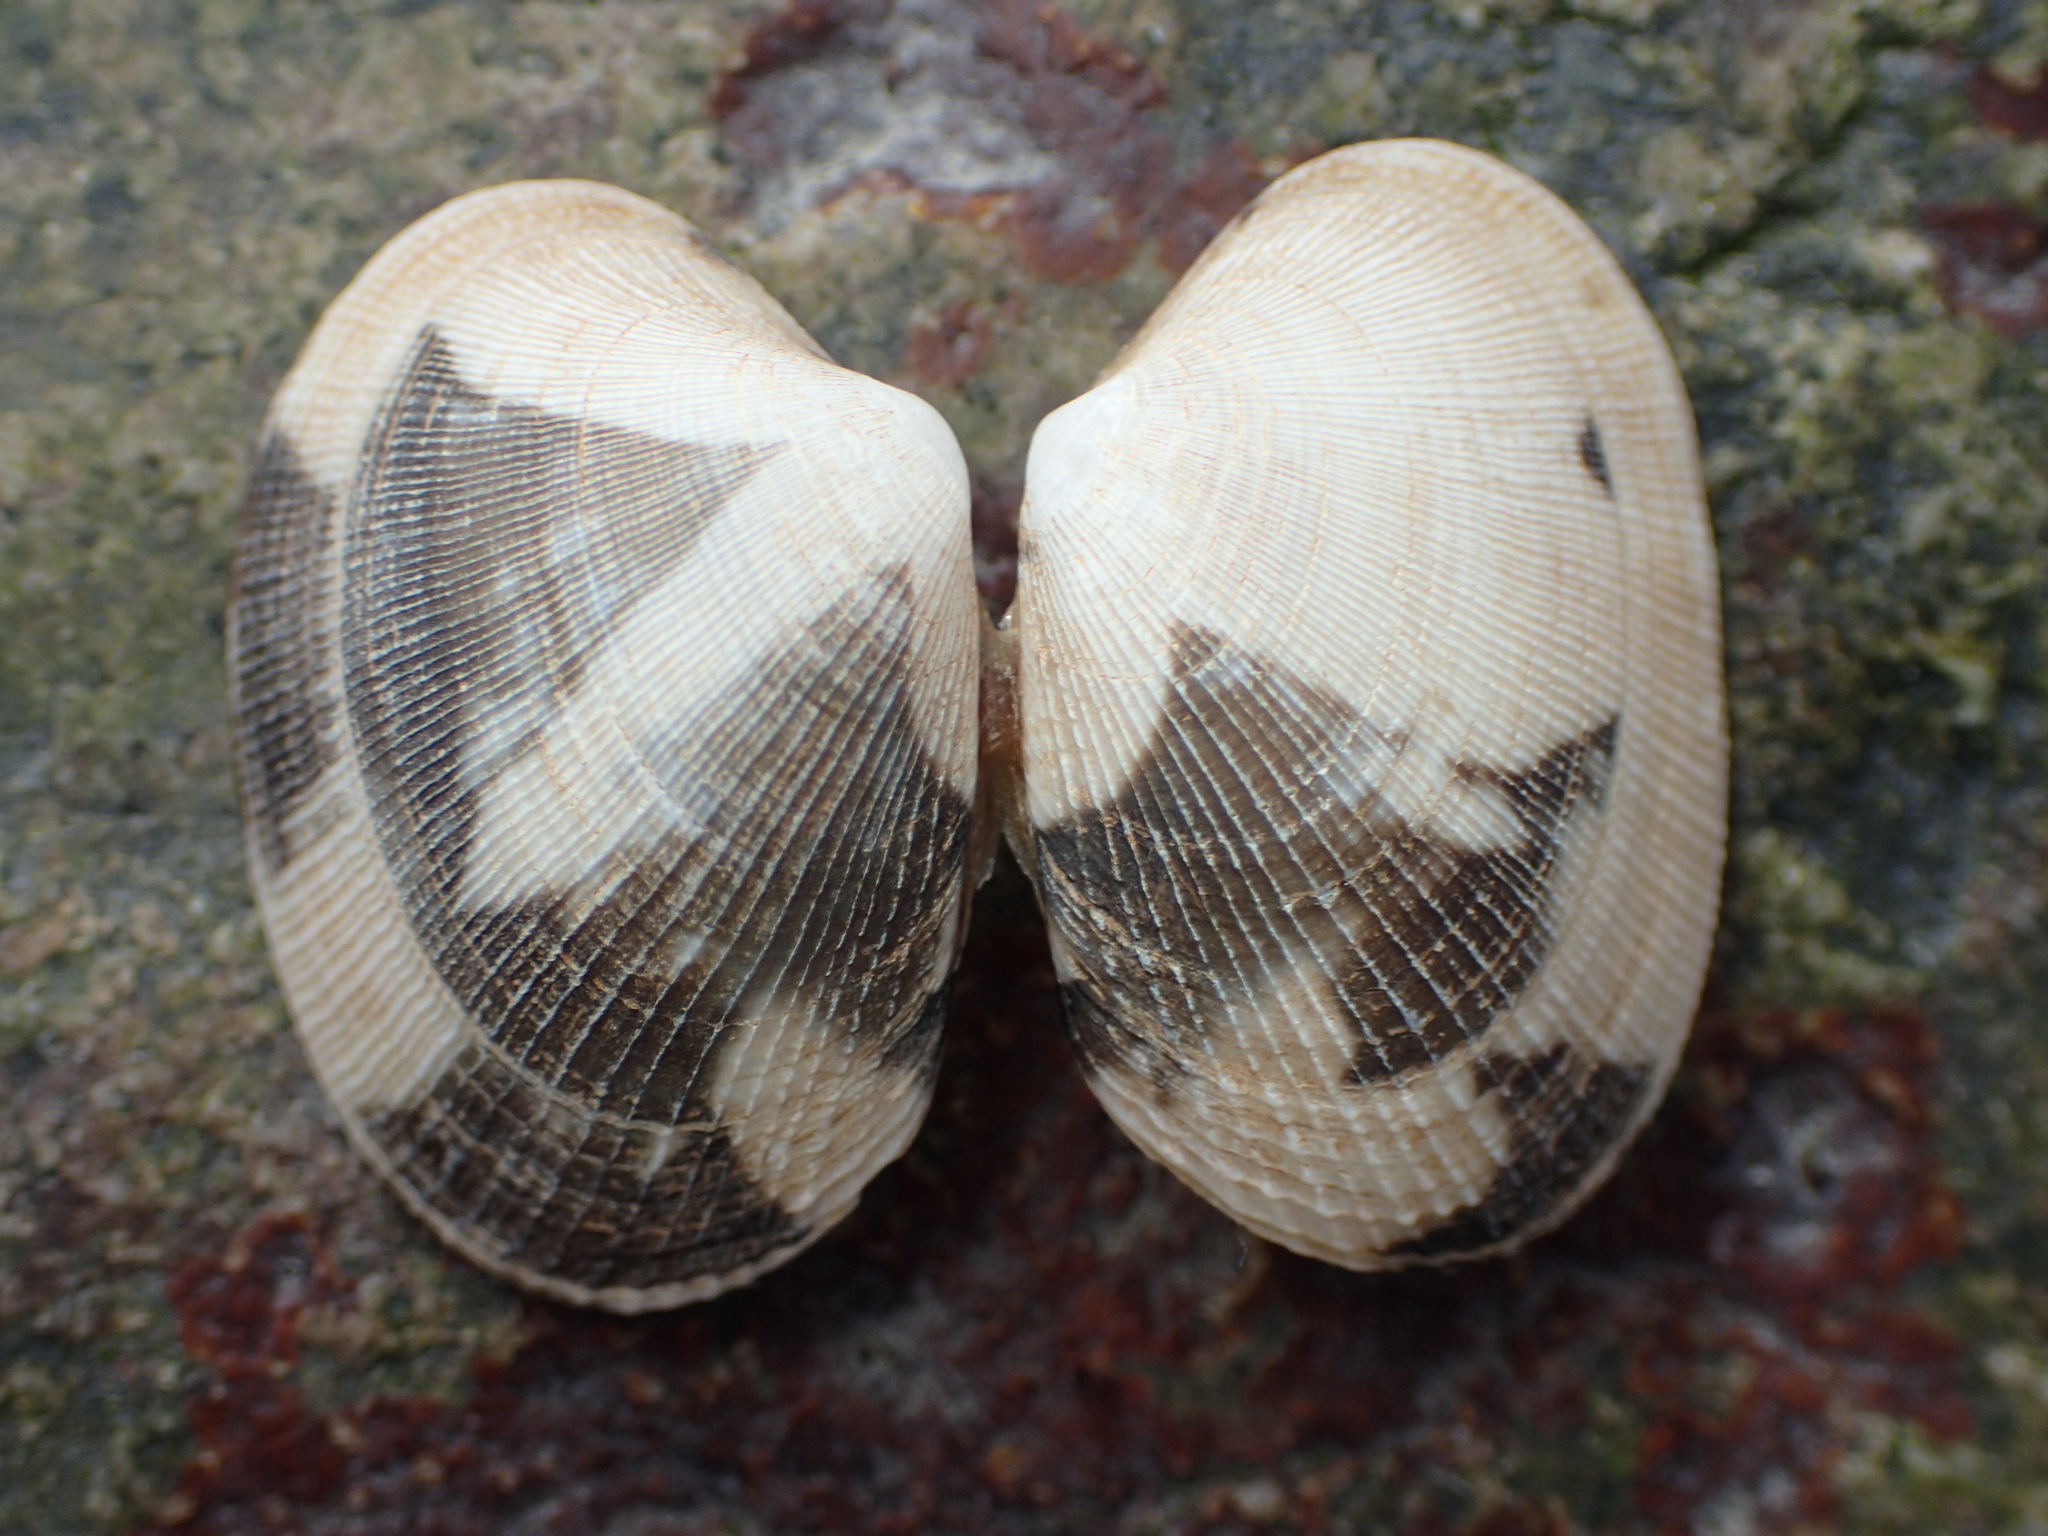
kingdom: Animalia
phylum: Mollusca
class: Bivalvia
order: Venerida
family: Veneridae
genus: Ruditapes
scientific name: Ruditapes philippinarum
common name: Manila clam
